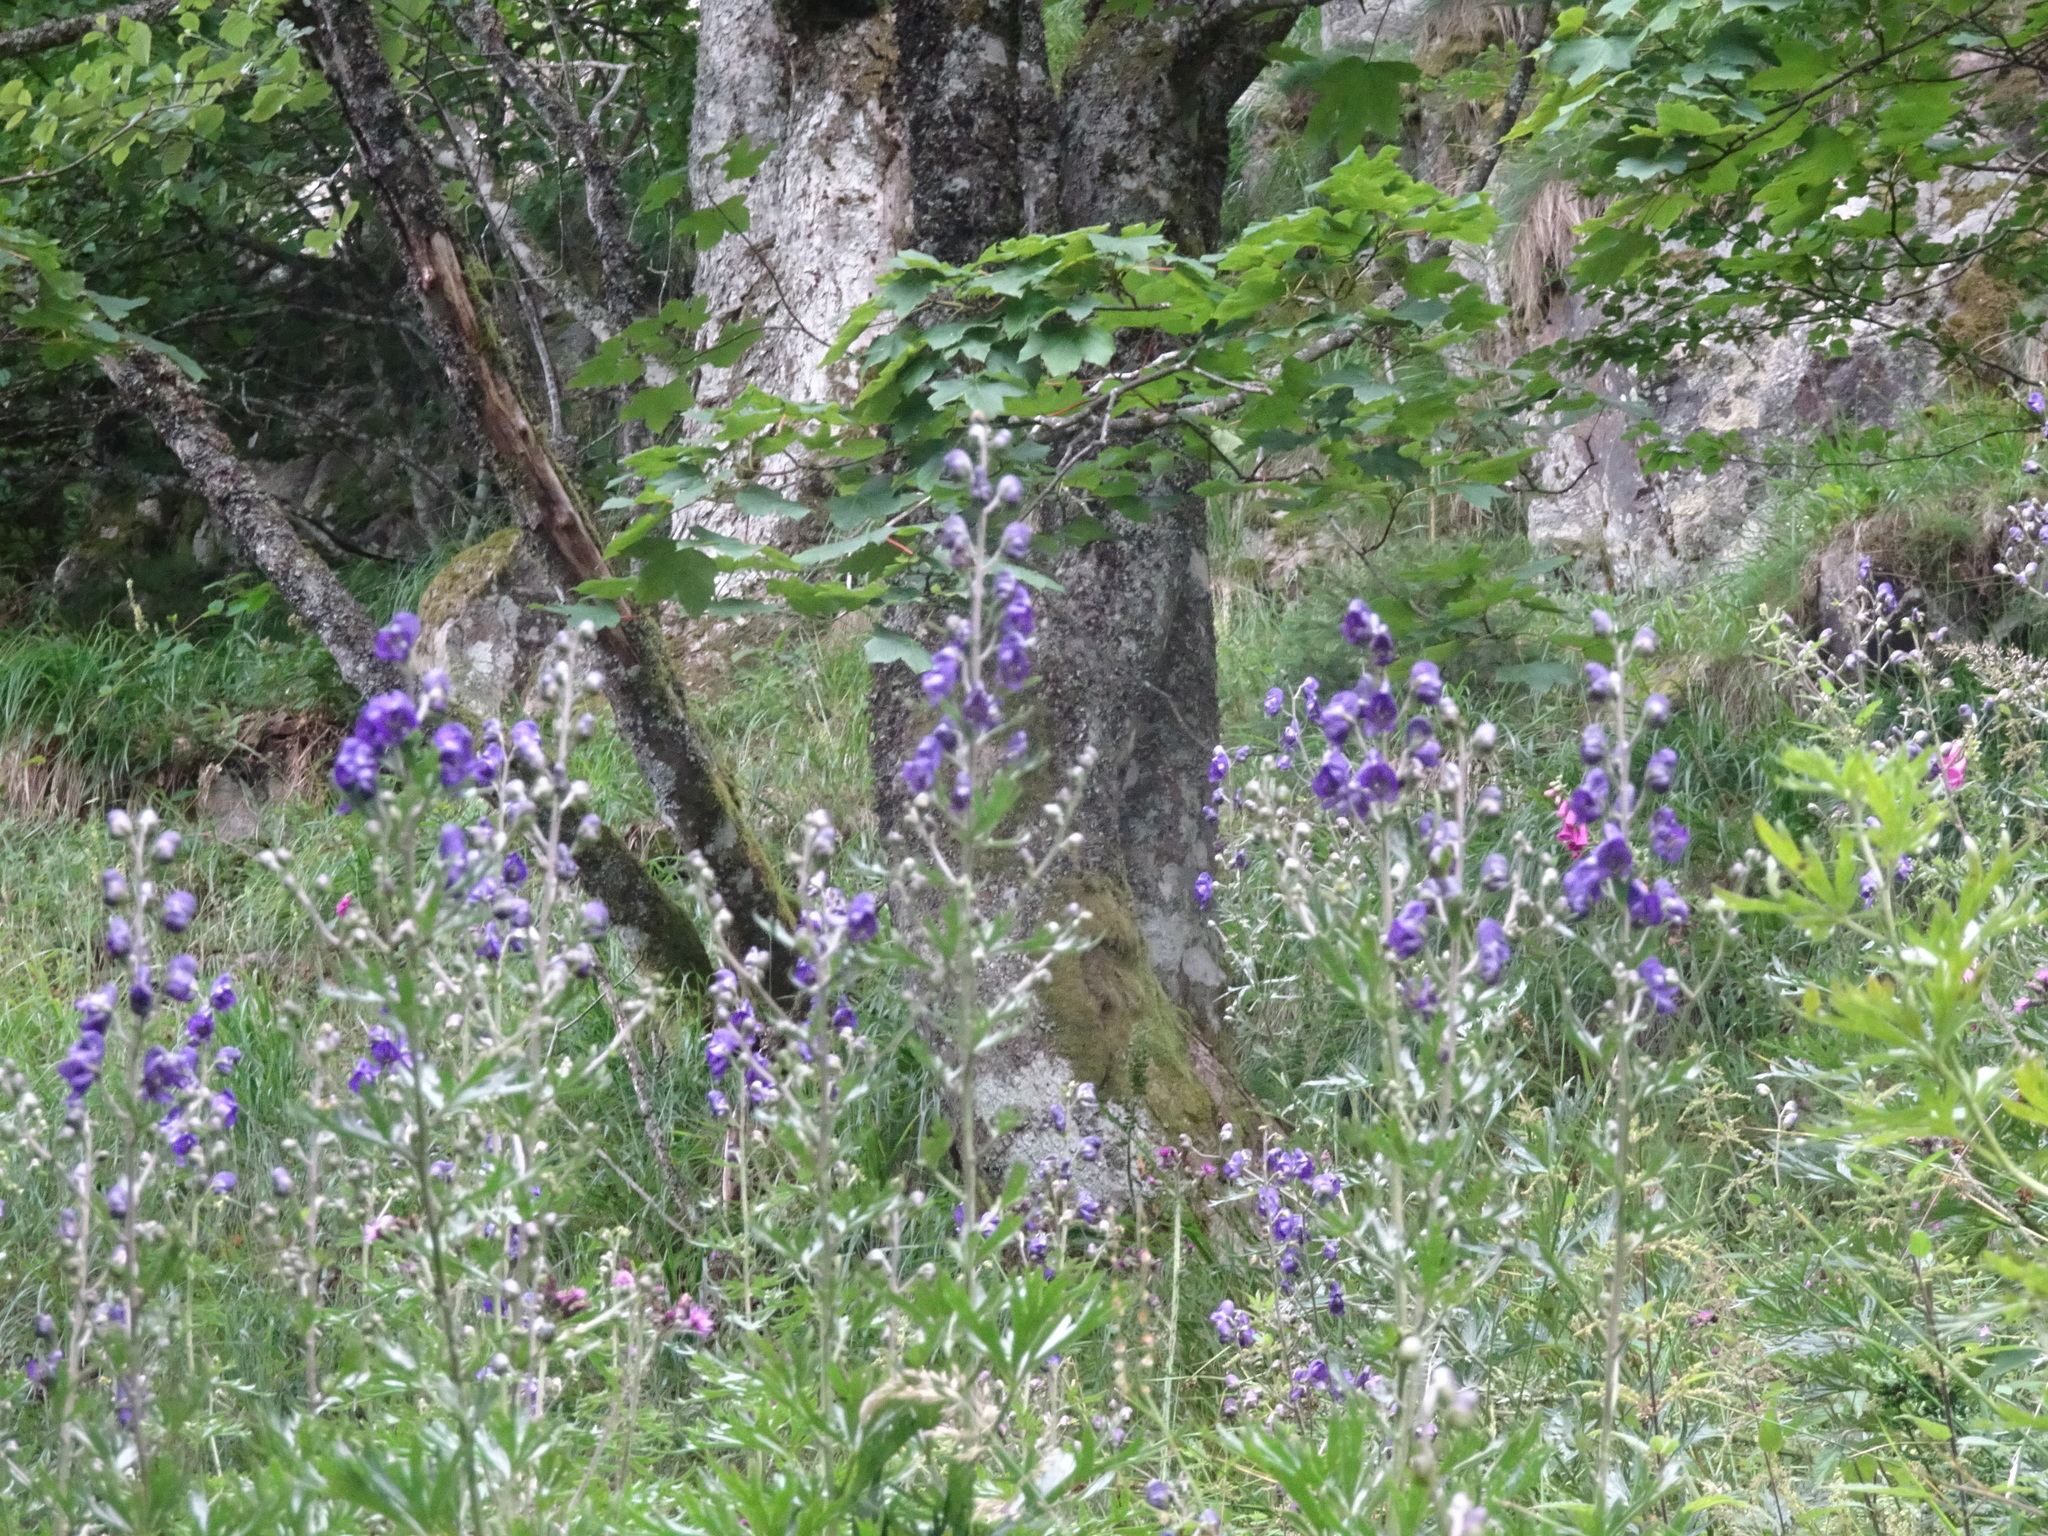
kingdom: Plantae
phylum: Tracheophyta
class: Magnoliopsida
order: Ranunculales
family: Ranunculaceae
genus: Aconitum
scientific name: Aconitum napellus
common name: Garden monkshood
